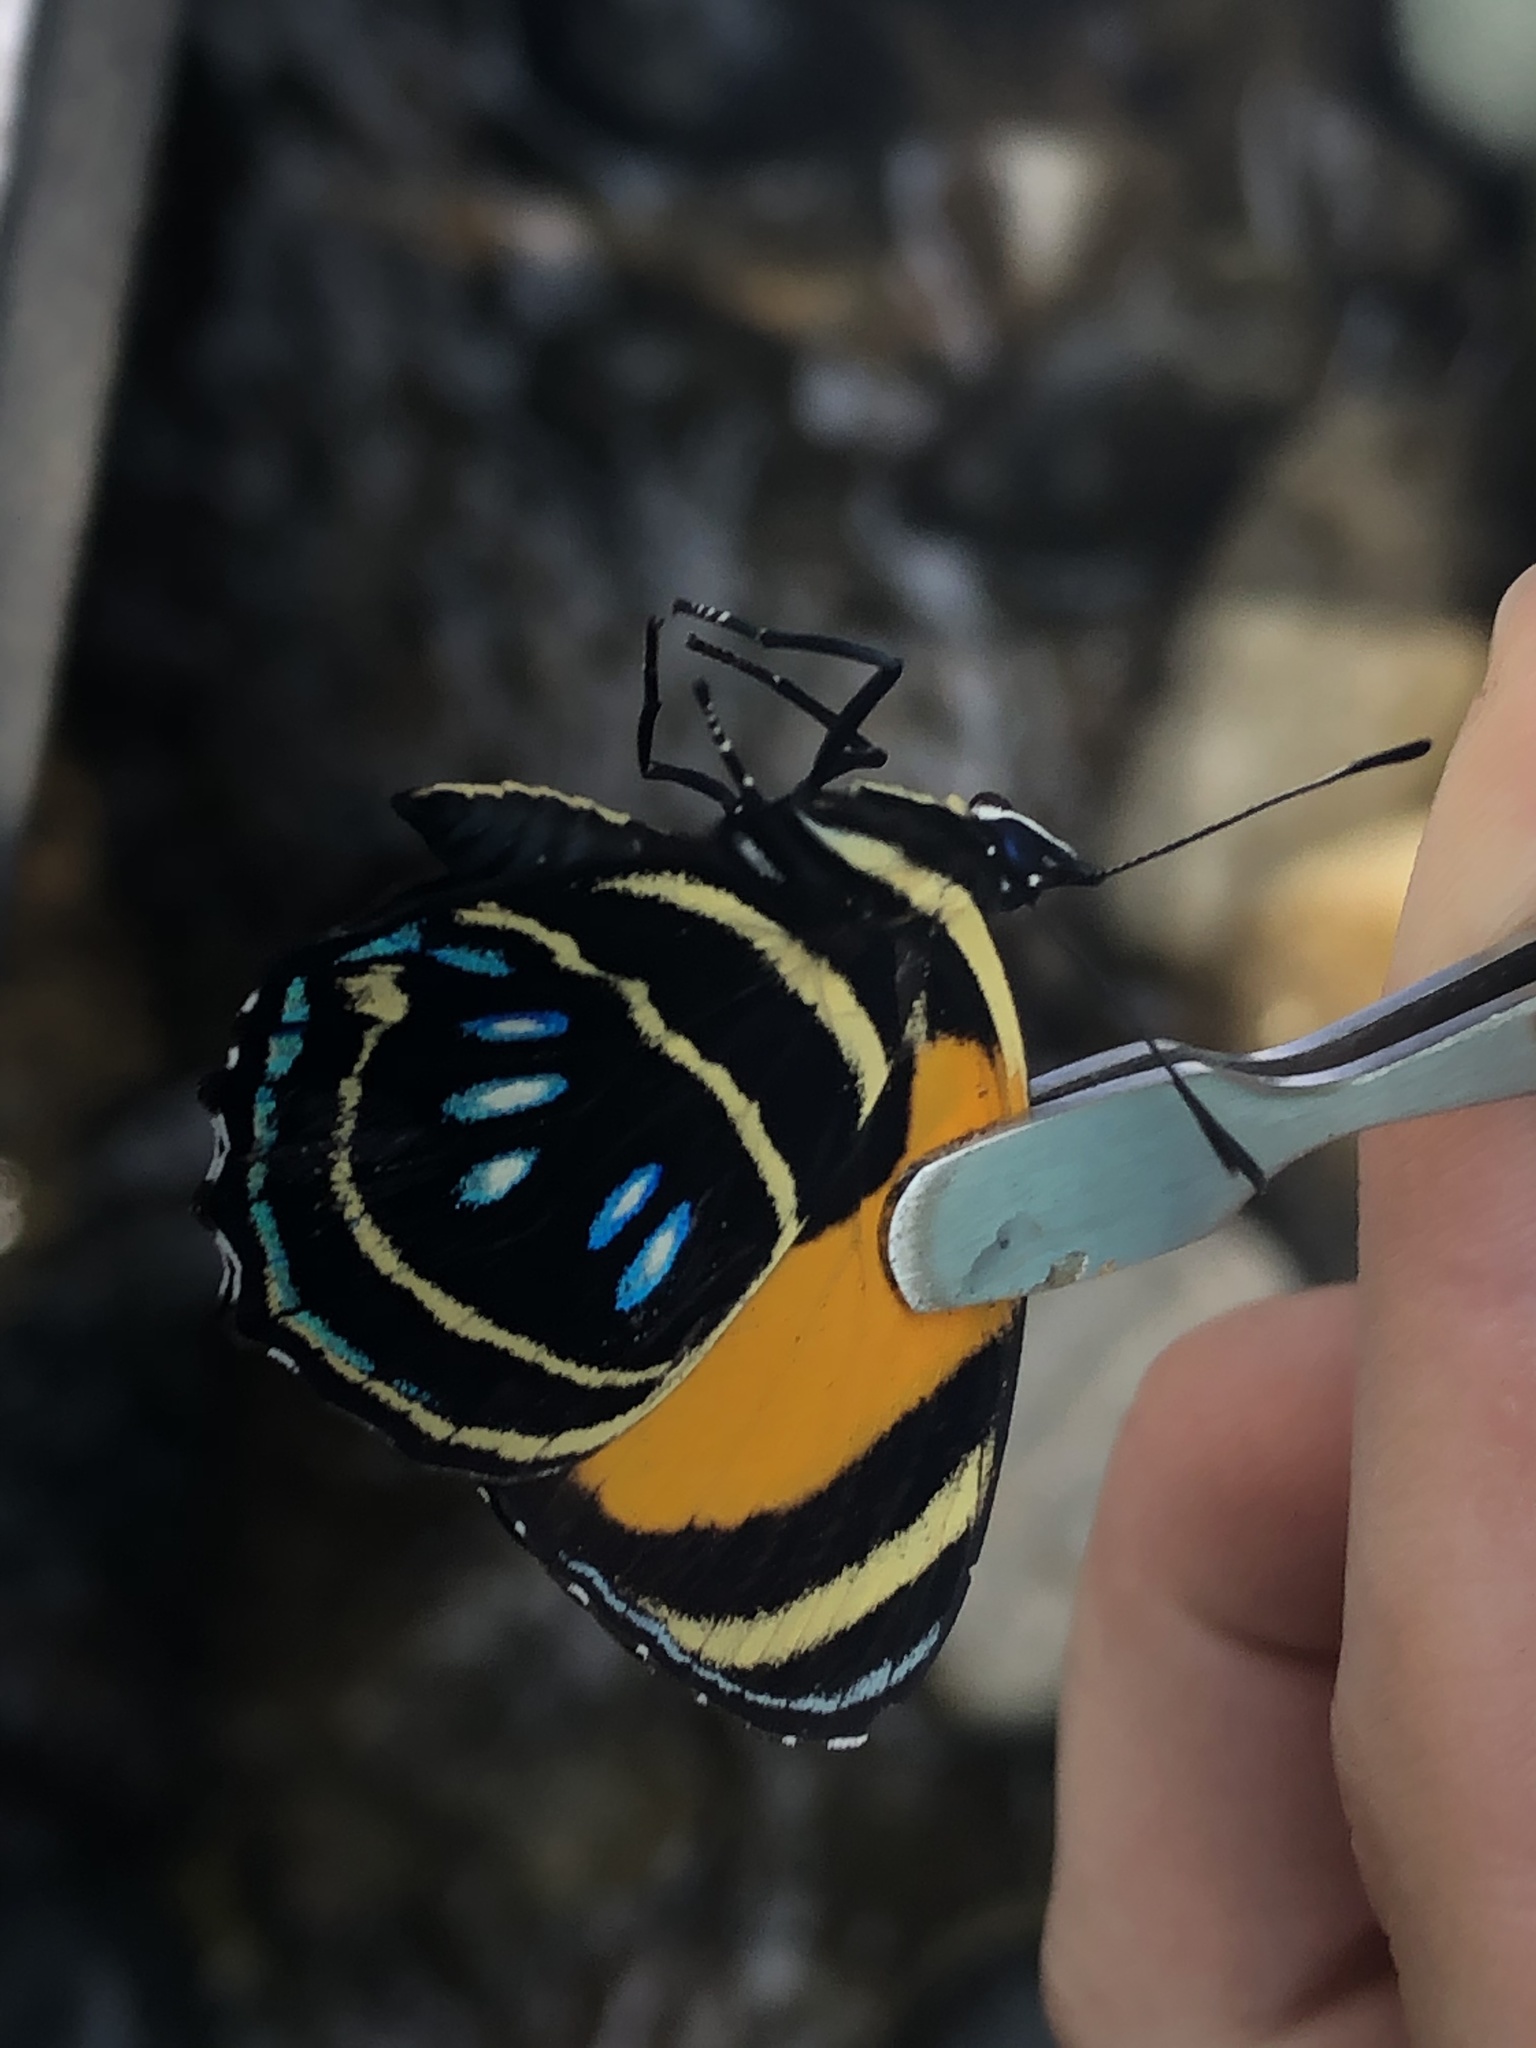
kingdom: Animalia
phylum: Arthropoda
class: Insecta
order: Lepidoptera
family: Nymphalidae
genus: Catagramma
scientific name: Catagramma Callicore lyca
